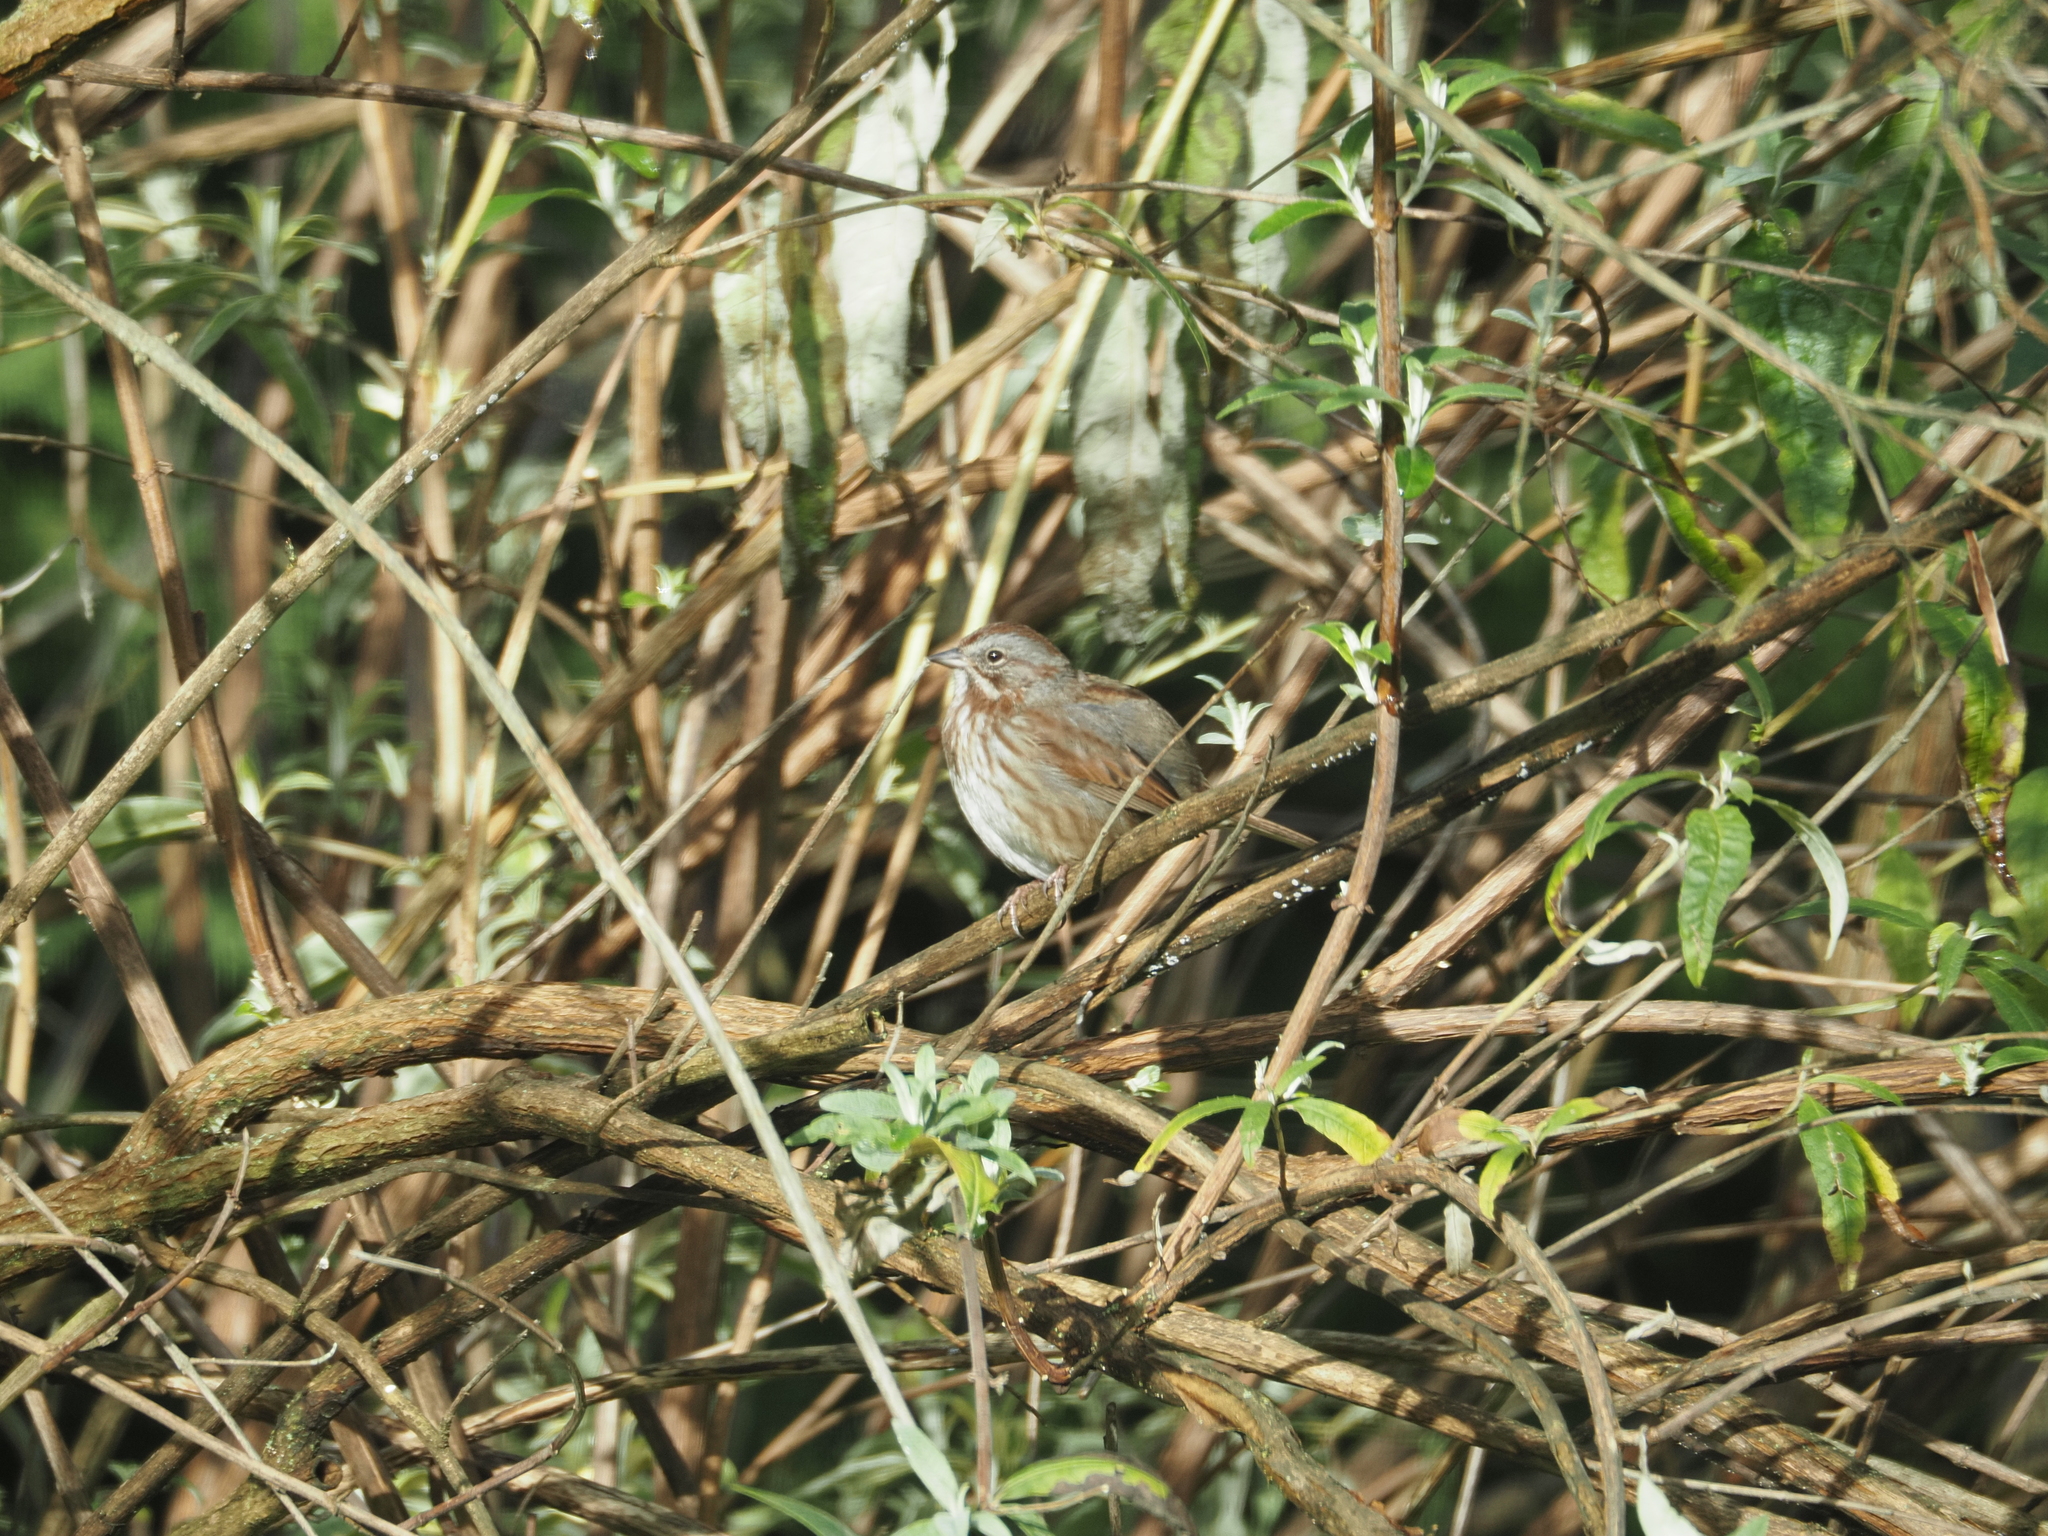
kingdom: Animalia
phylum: Chordata
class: Aves
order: Passeriformes
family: Passerellidae
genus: Melospiza
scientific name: Melospiza melodia
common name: Song sparrow
